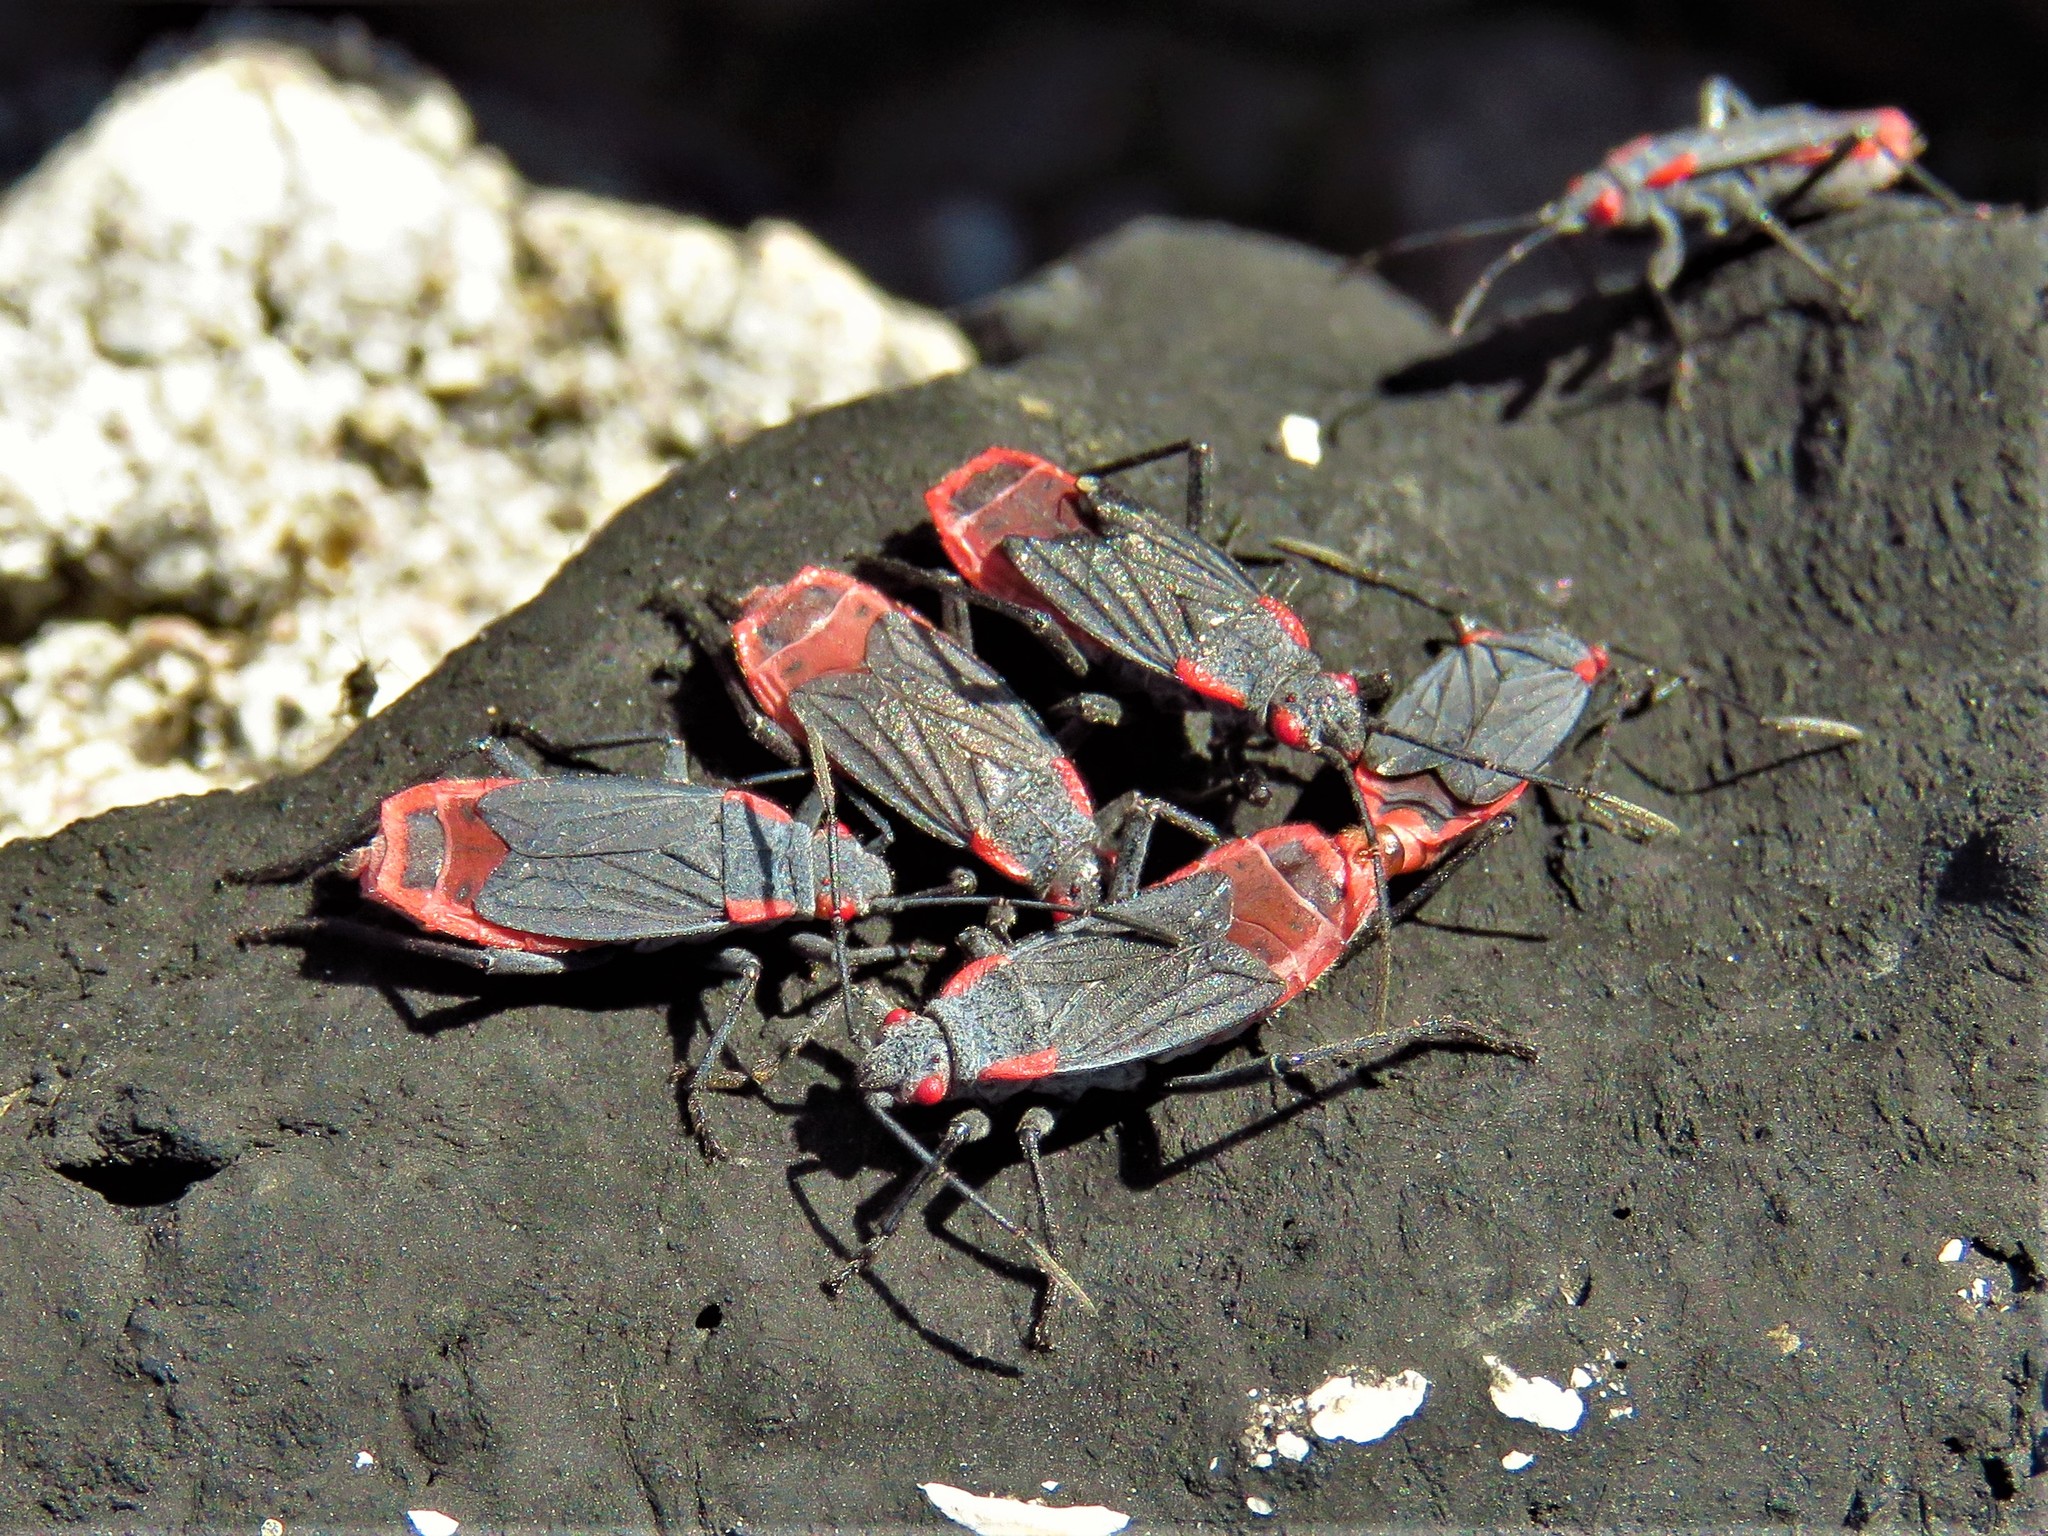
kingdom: Animalia
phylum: Arthropoda
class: Insecta
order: Hemiptera
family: Rhopalidae
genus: Jadera
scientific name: Jadera haematoloma
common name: Red-shouldered bug
